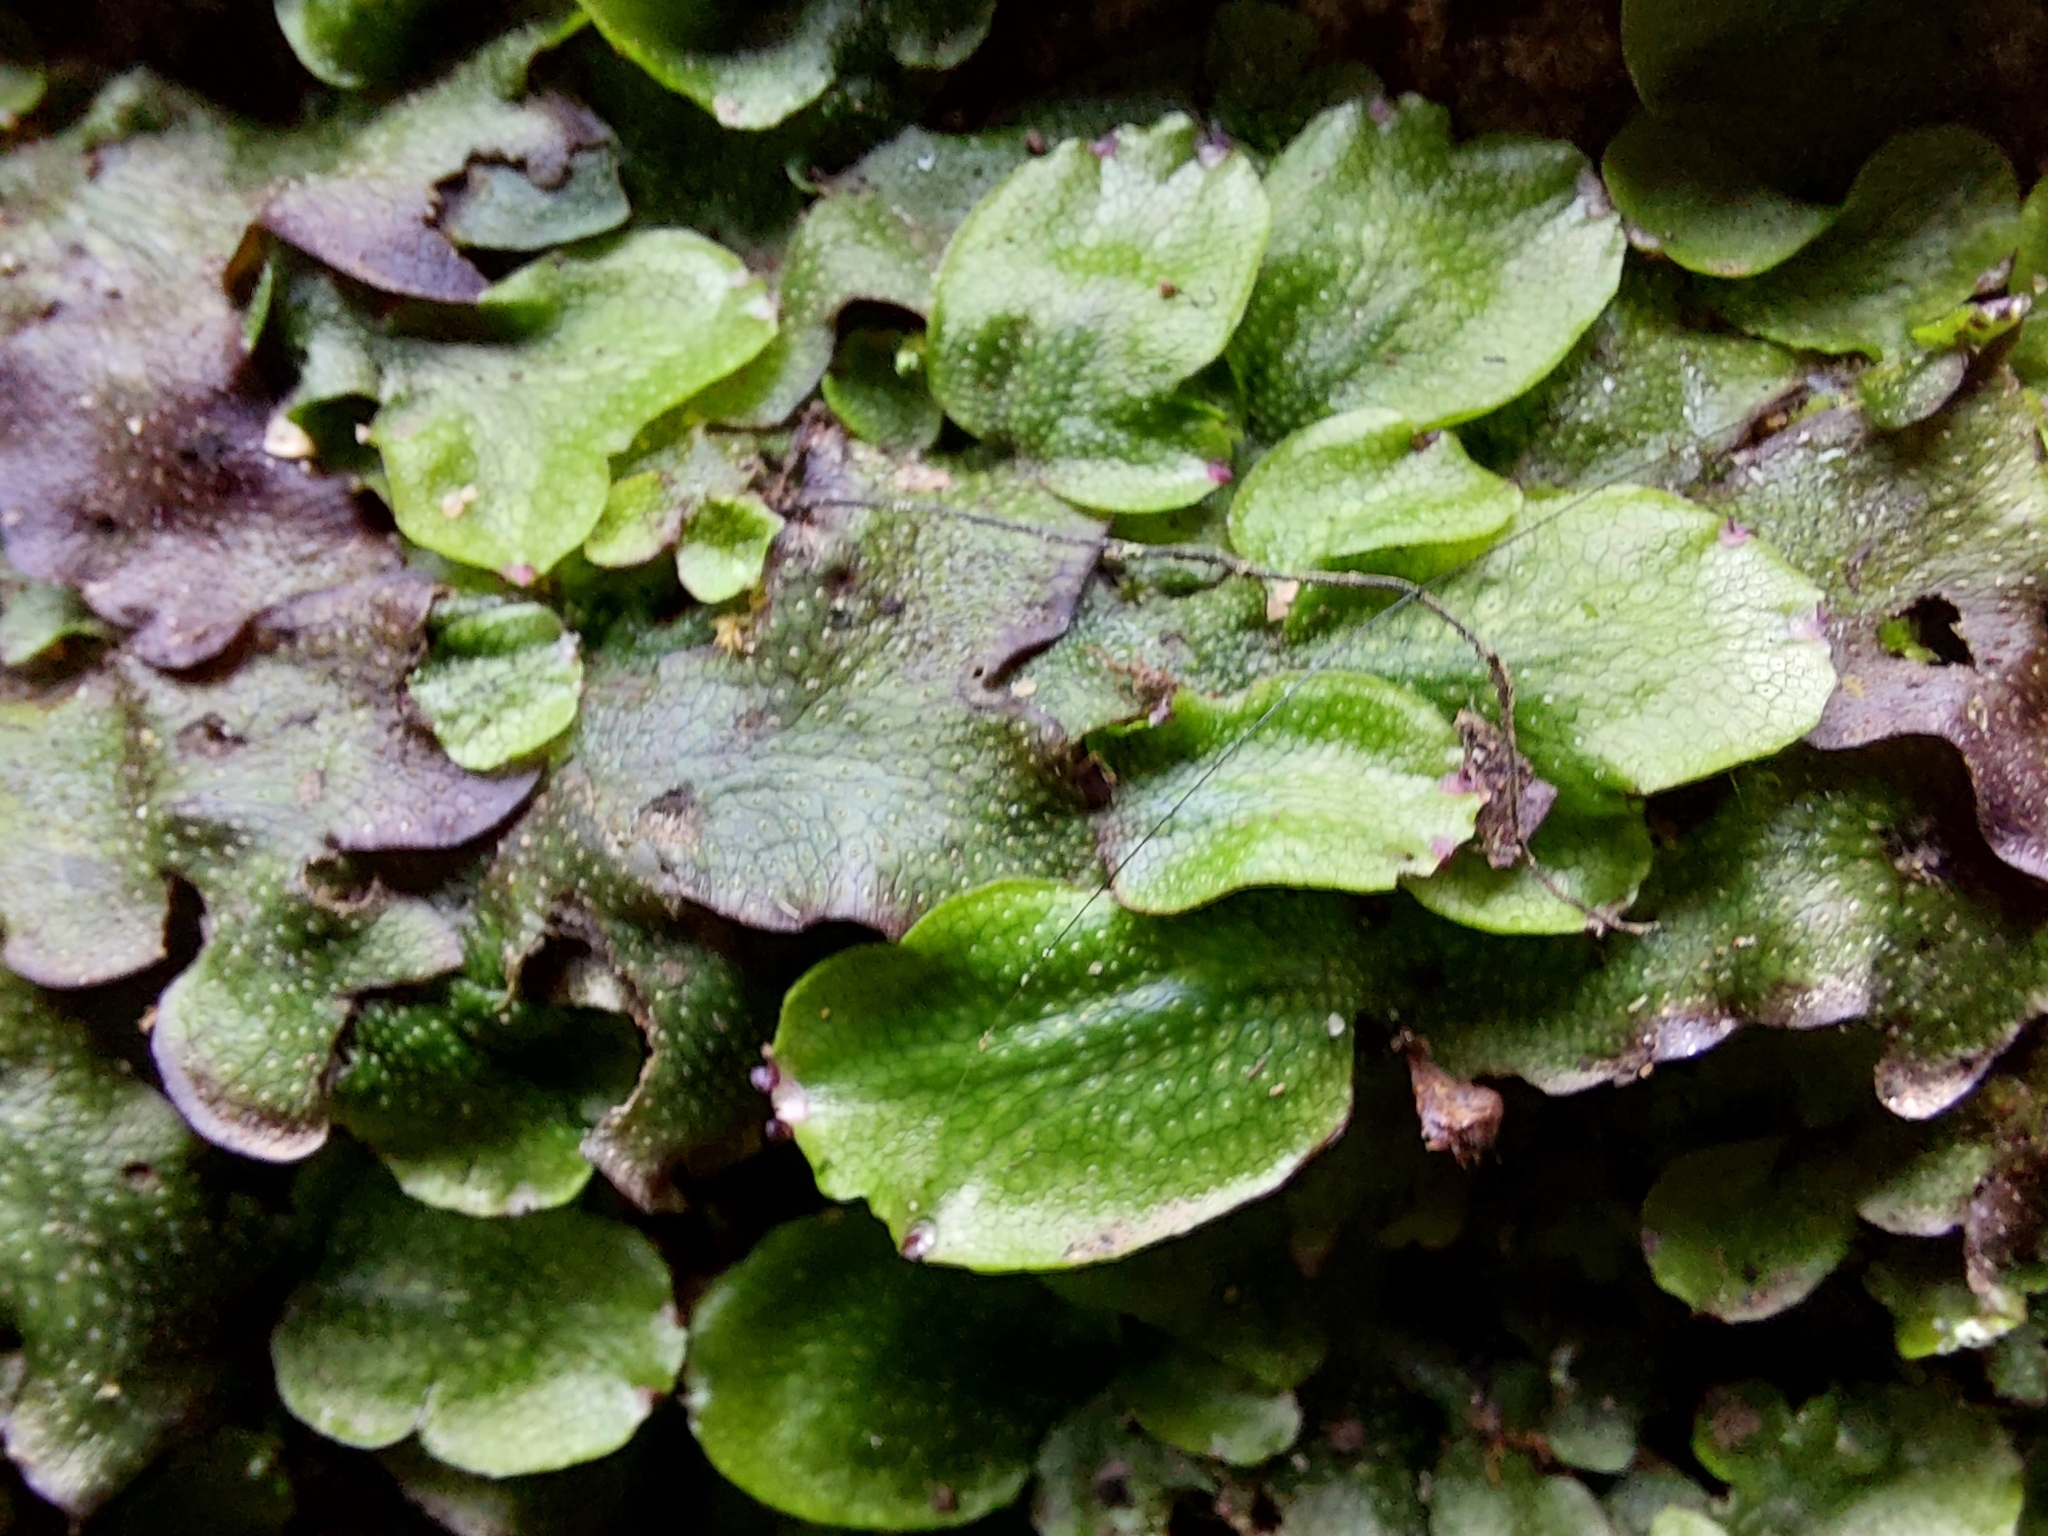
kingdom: Plantae
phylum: Marchantiophyta
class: Marchantiopsida
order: Marchantiales
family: Conocephalaceae
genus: Conocephalum
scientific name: Conocephalum conicum
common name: Great scented liverwort
